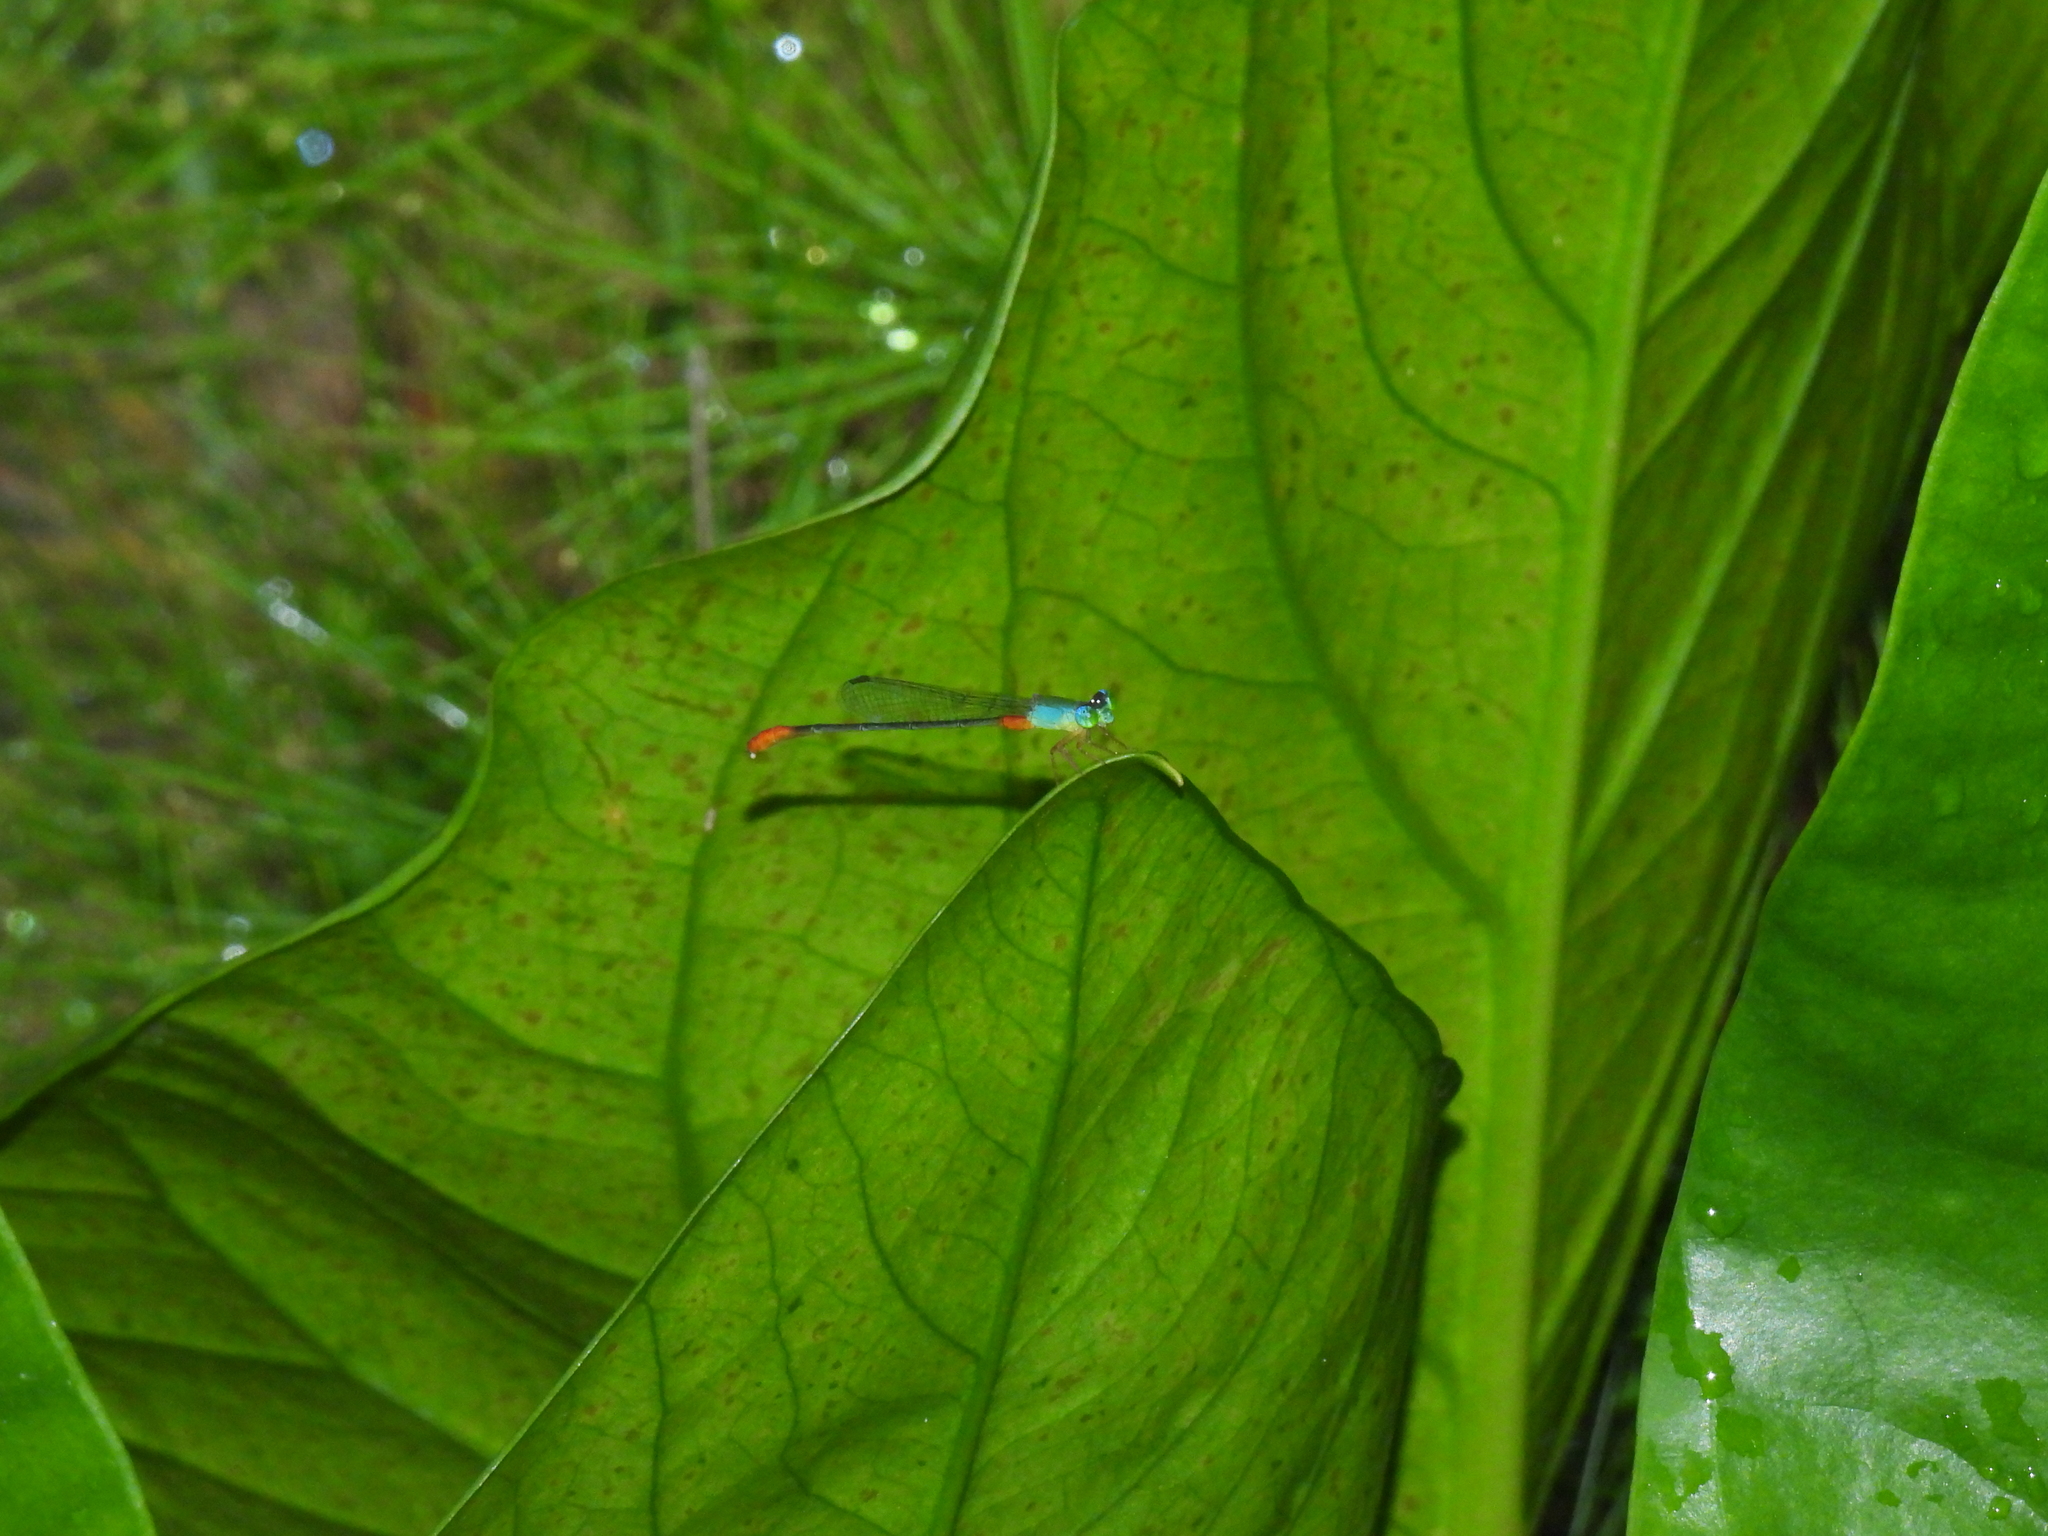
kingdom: Animalia
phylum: Arthropoda
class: Insecta
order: Odonata
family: Coenagrionidae
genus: Ceriagrion
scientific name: Ceriagrion cerinorubellum
